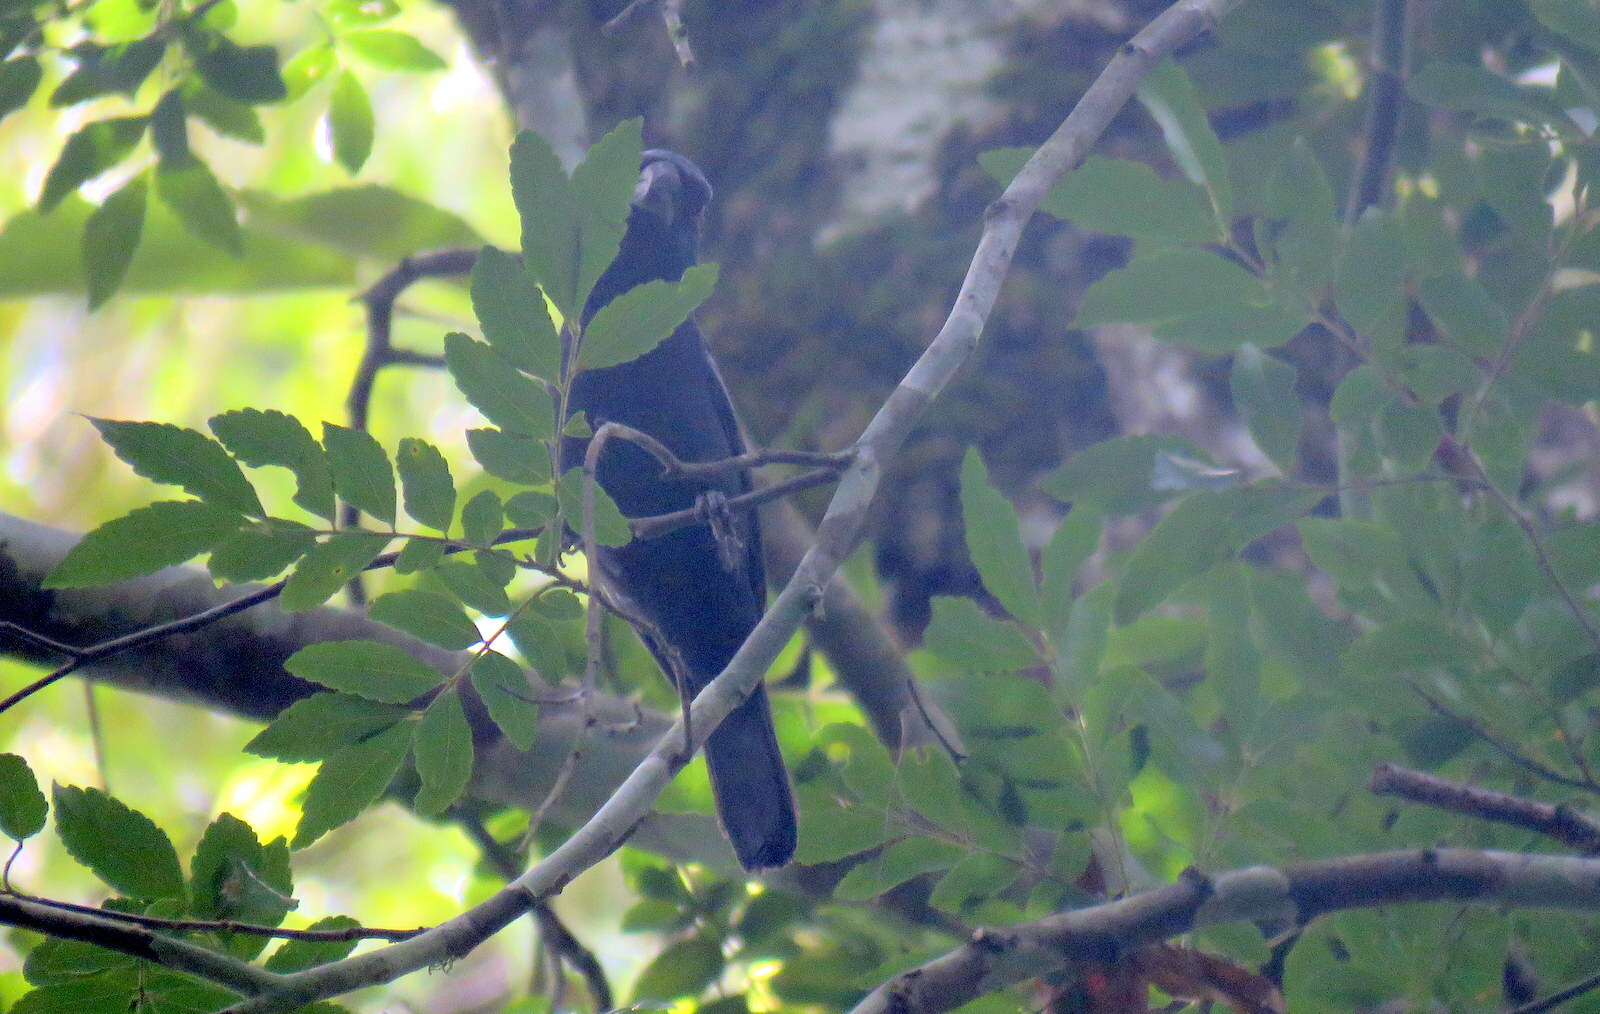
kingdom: Animalia
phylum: Chordata
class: Aves
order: Passeriformes
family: Cardinalidae
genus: Cyanoloxia
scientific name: Cyanoloxia brissonii
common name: Ultramarine grosbeak
